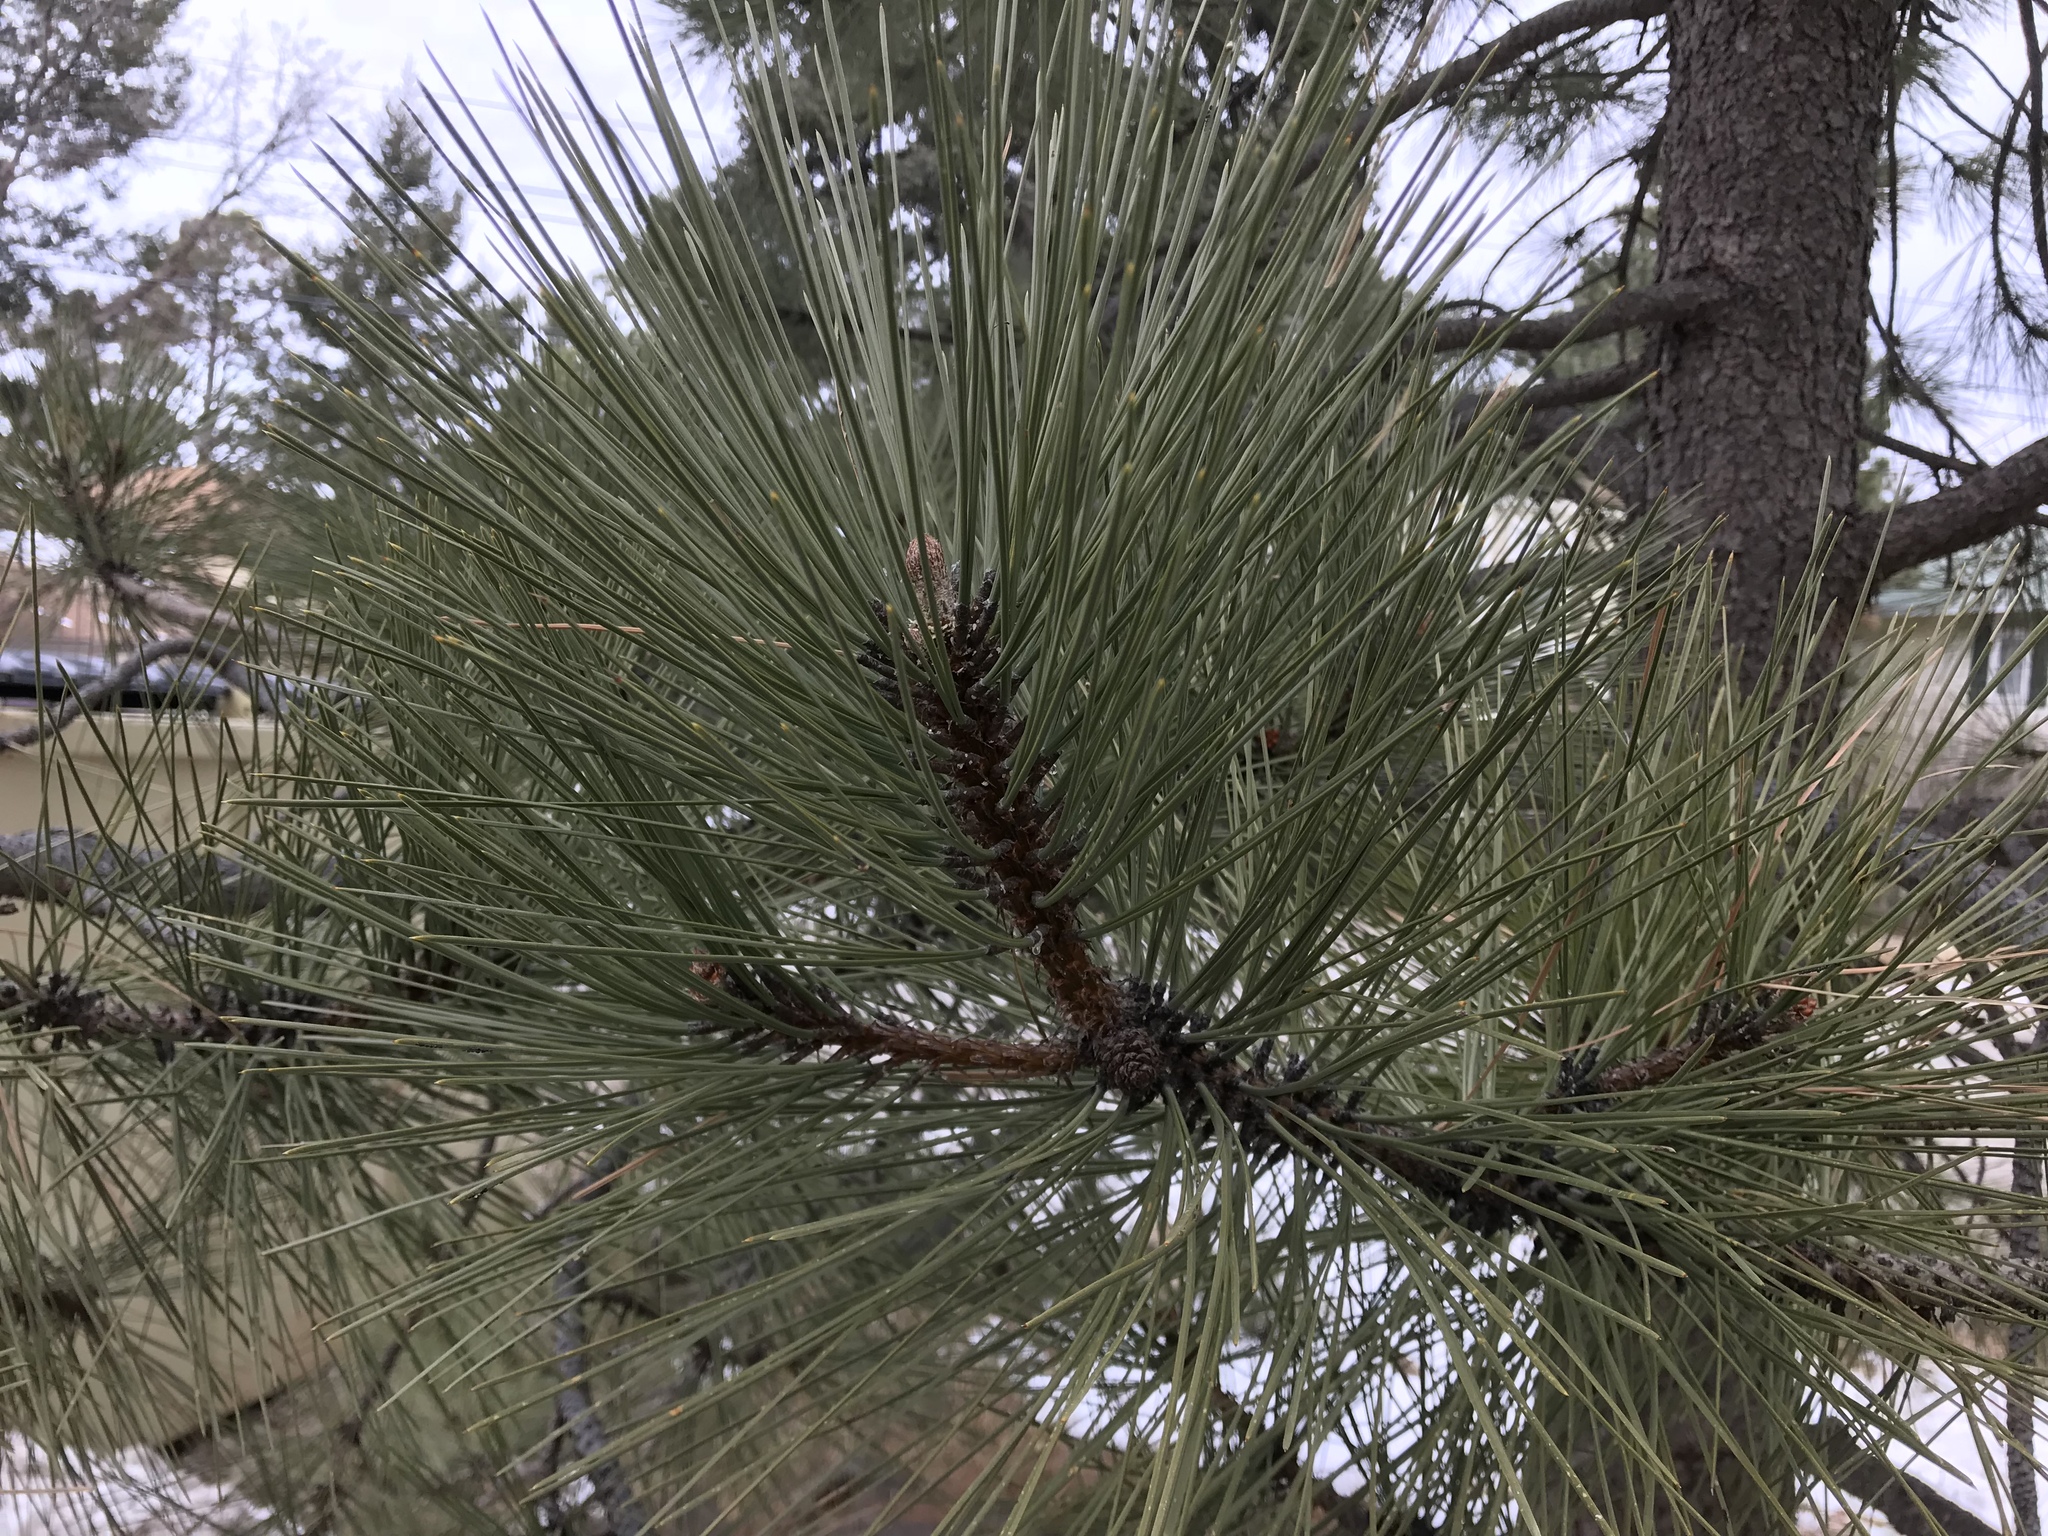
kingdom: Plantae
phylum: Tracheophyta
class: Pinopsida
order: Pinales
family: Pinaceae
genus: Pinus
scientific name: Pinus ponderosa
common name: Western yellow-pine
